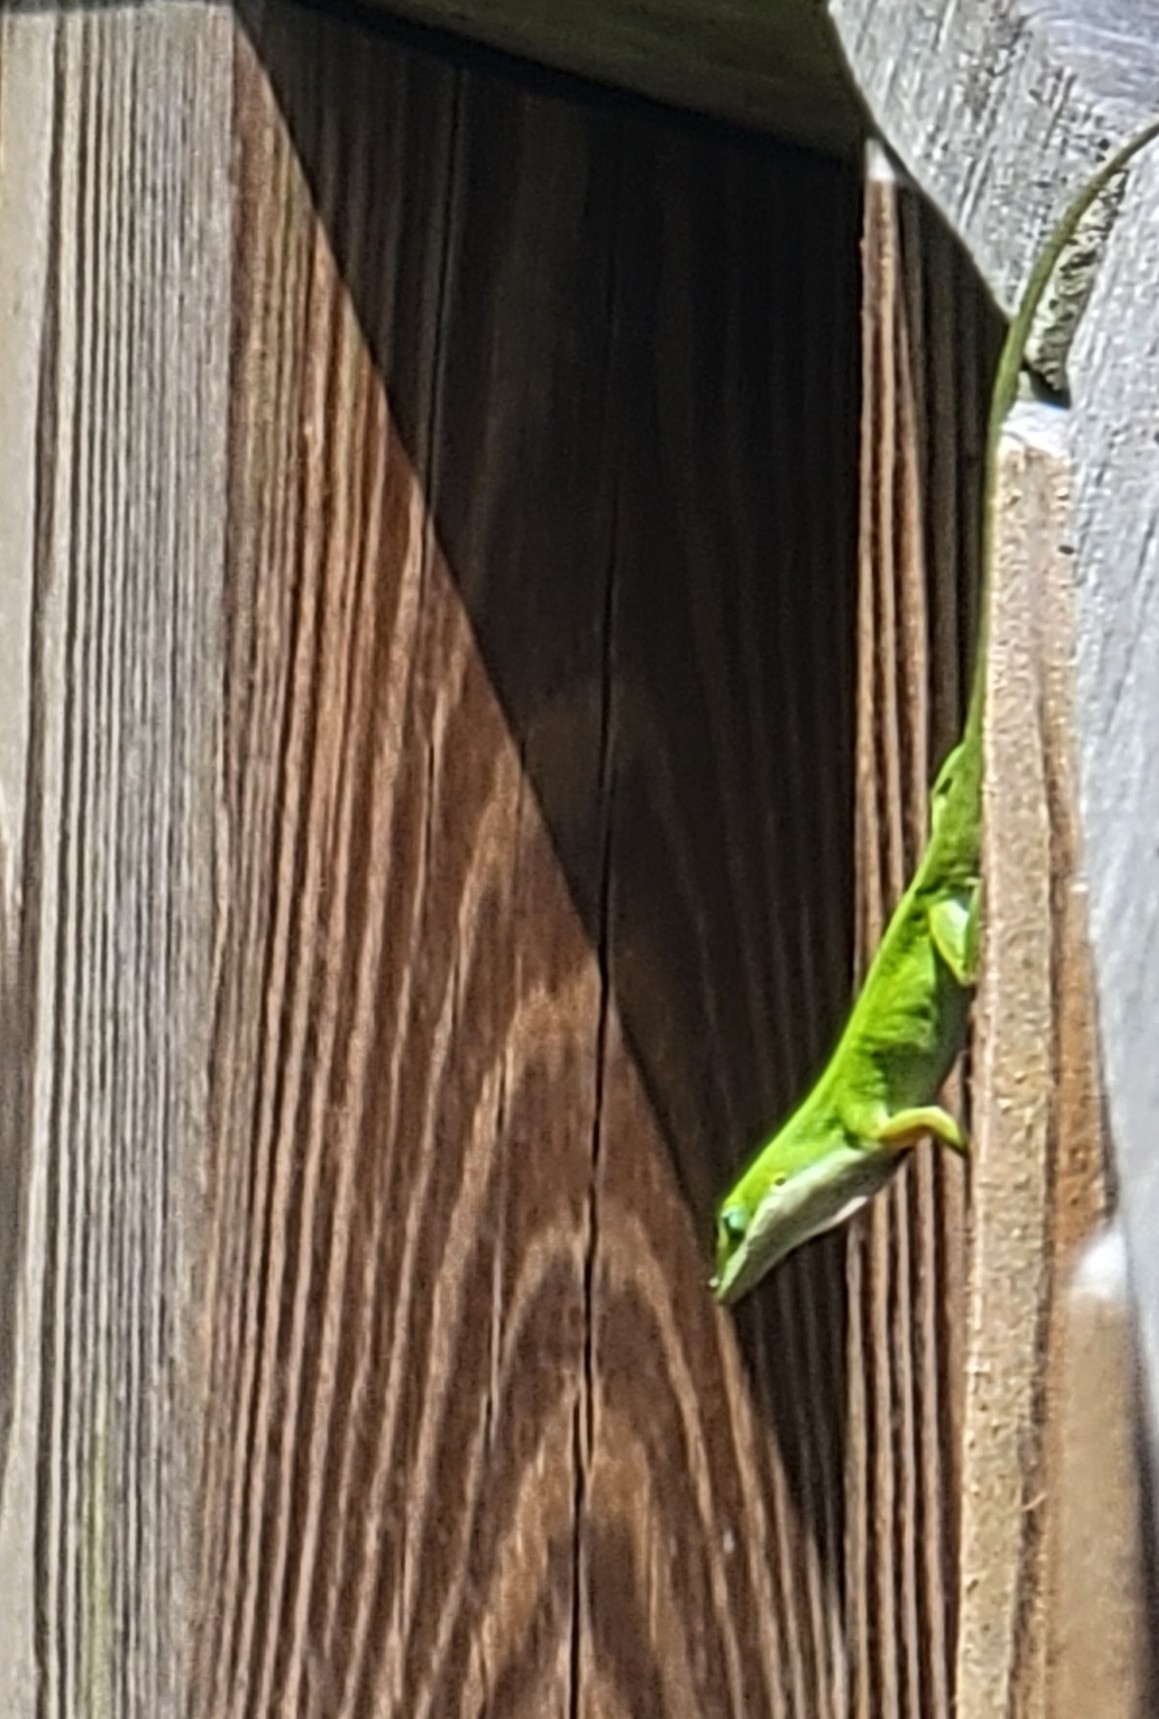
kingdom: Animalia
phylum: Chordata
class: Squamata
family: Dactyloidae
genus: Anolis
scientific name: Anolis carolinensis
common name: Green anole
